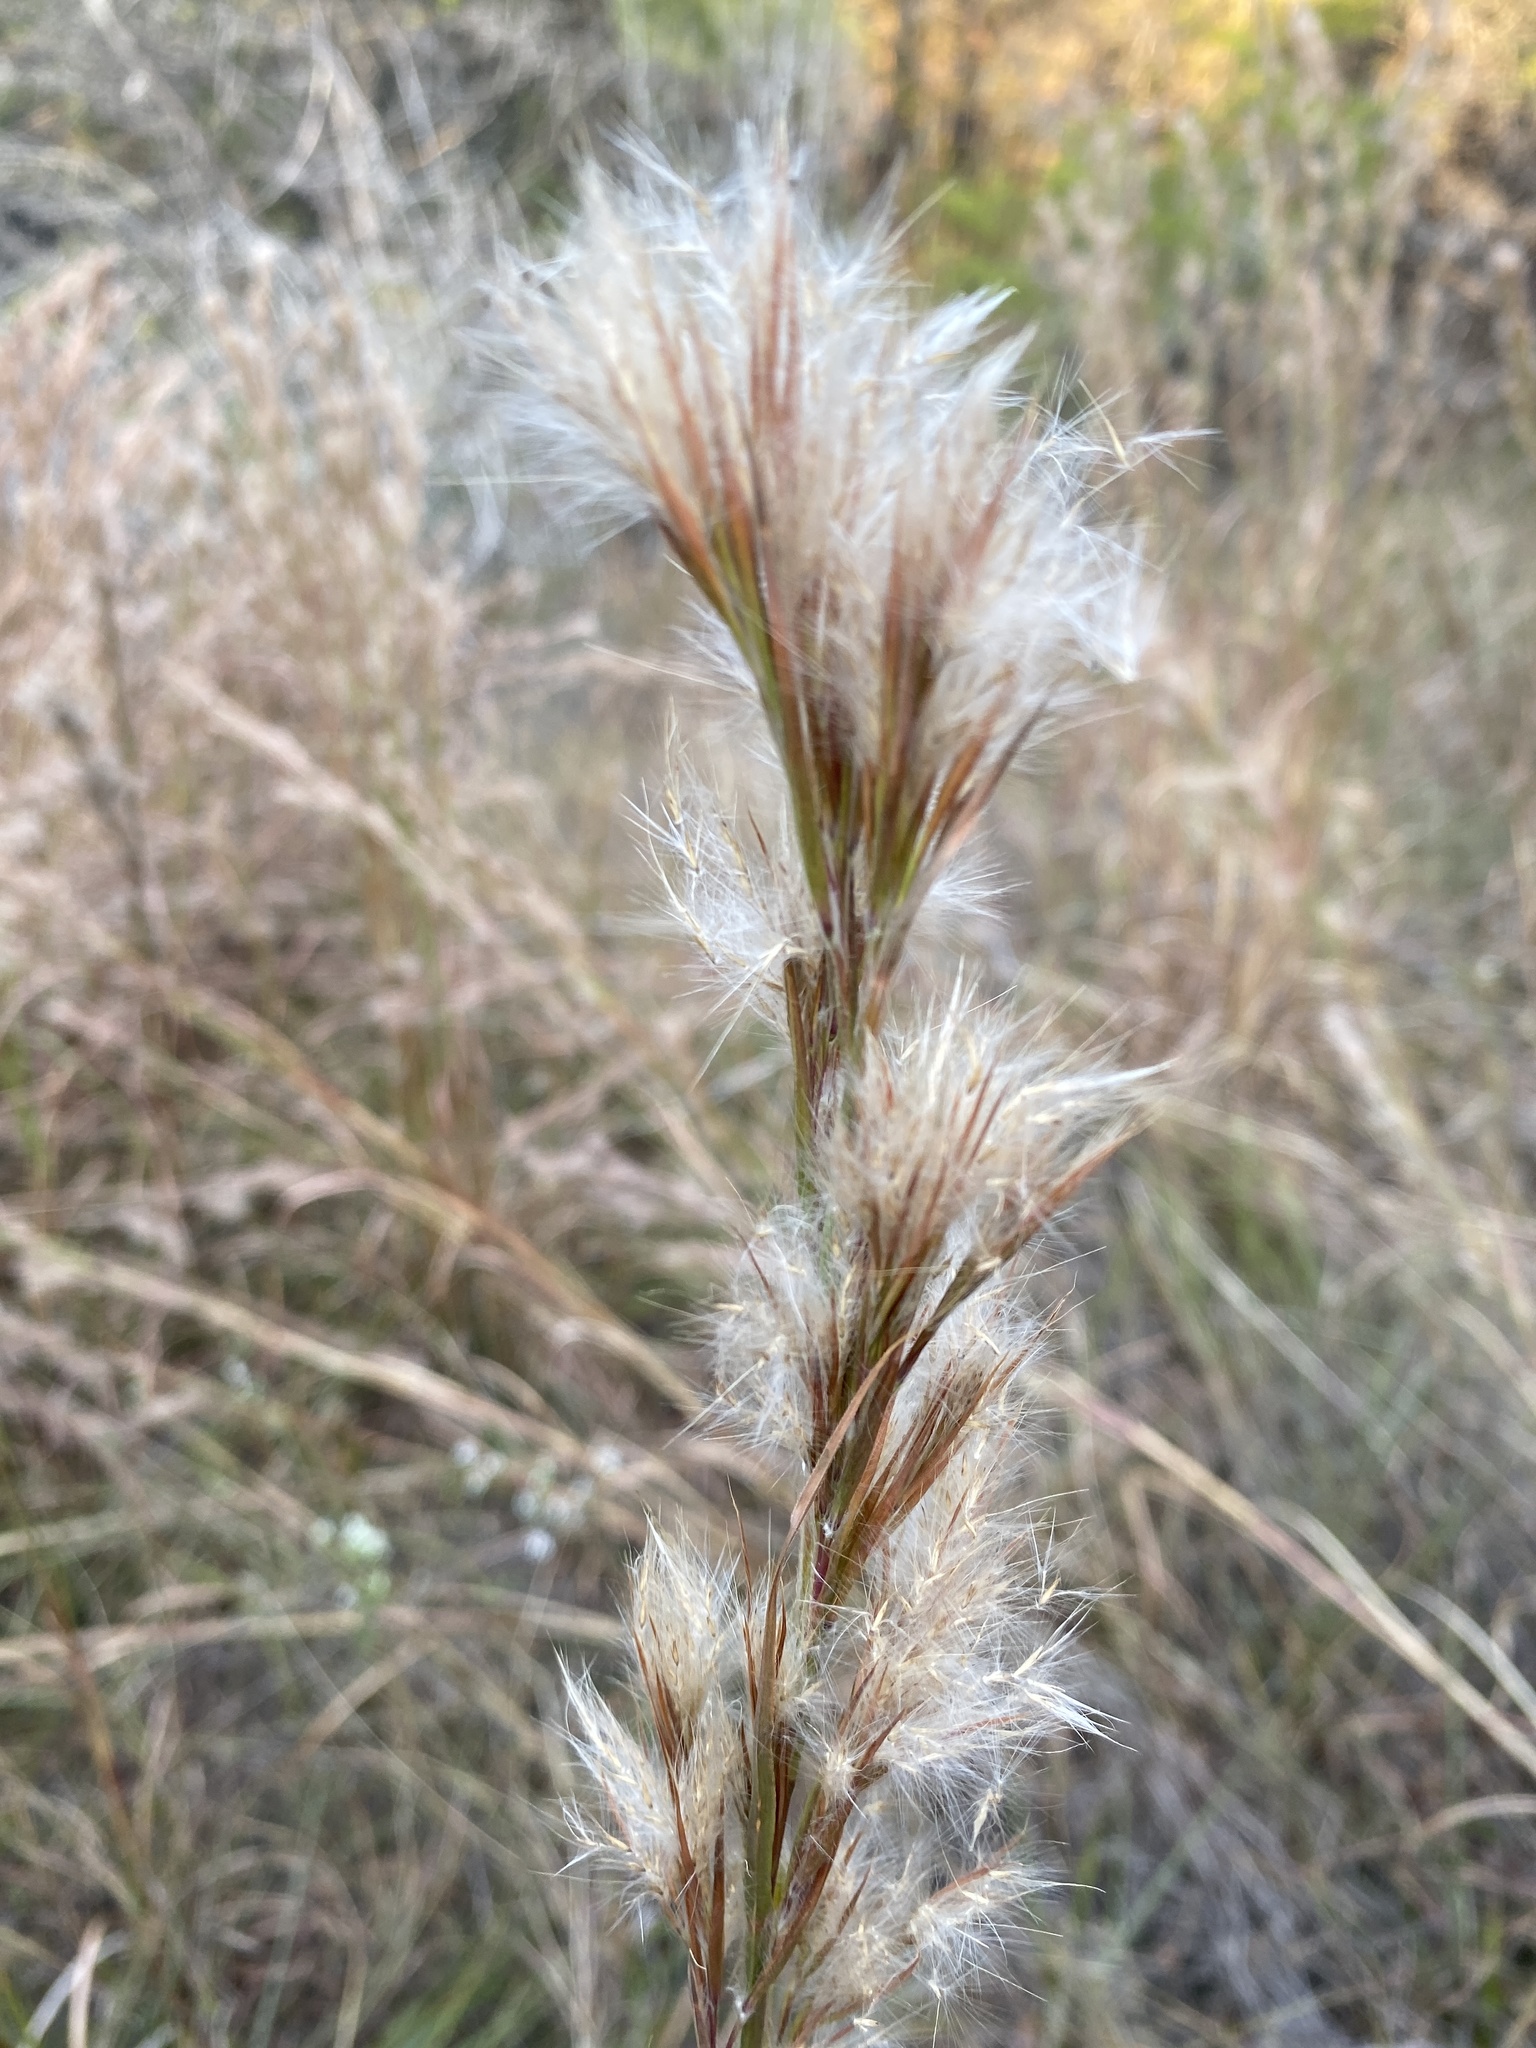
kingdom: Plantae
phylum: Tracheophyta
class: Liliopsida
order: Poales
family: Poaceae
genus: Andropogon
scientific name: Andropogon tenuispatheus
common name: Bushy bluestem
